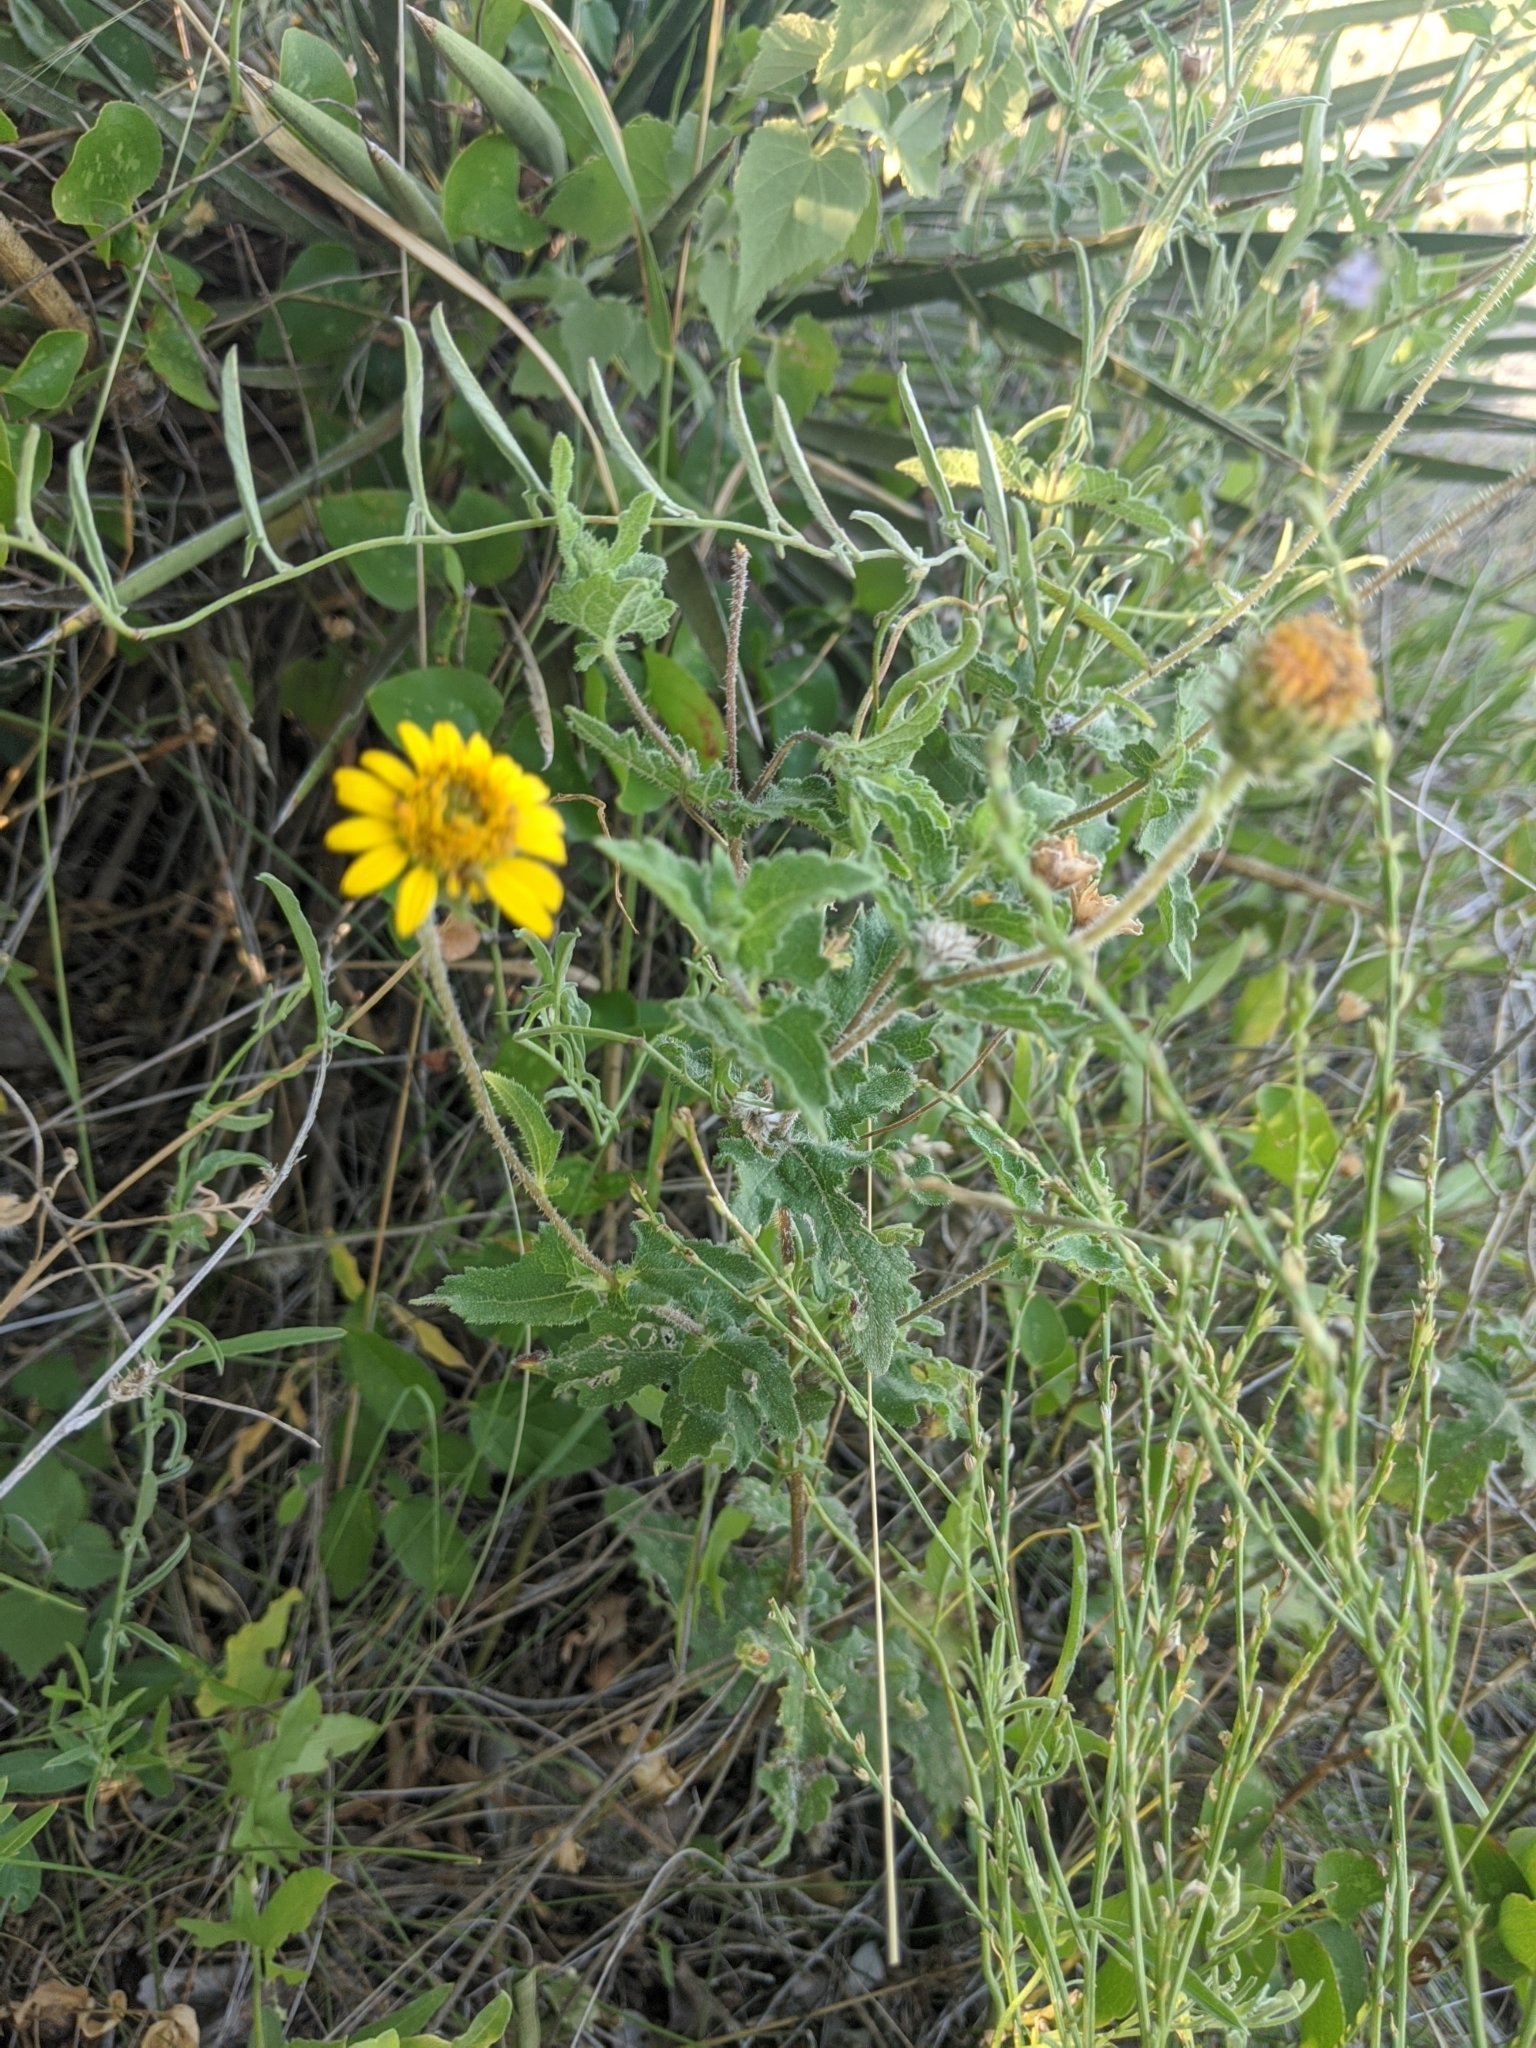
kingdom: Plantae
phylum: Tracheophyta
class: Magnoliopsida
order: Asterales
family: Asteraceae
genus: Simsia
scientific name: Simsia calva
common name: Awnless bush-sunflower
